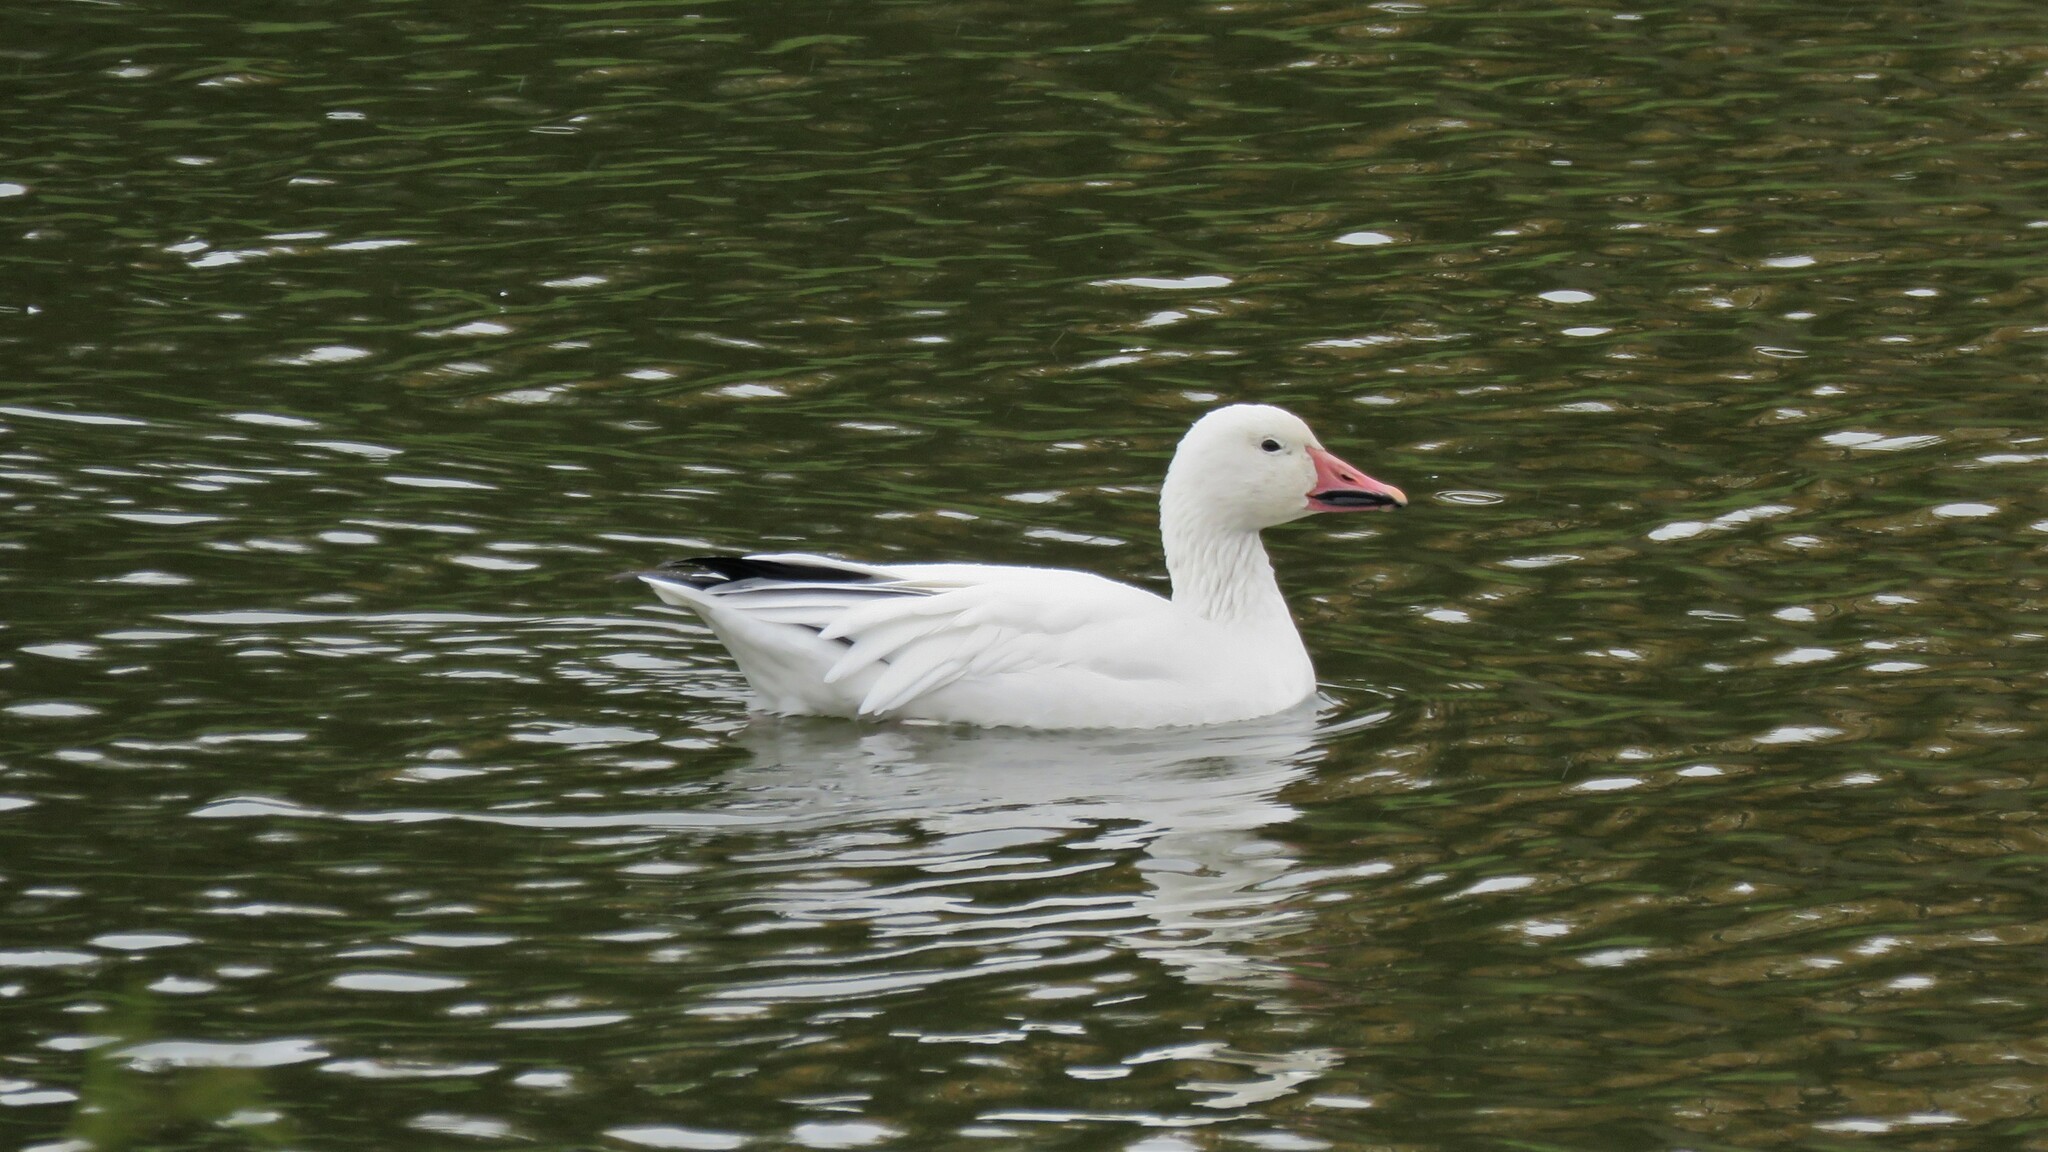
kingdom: Animalia
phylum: Chordata
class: Aves
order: Anseriformes
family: Anatidae
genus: Anser
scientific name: Anser caerulescens
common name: Snow goose
